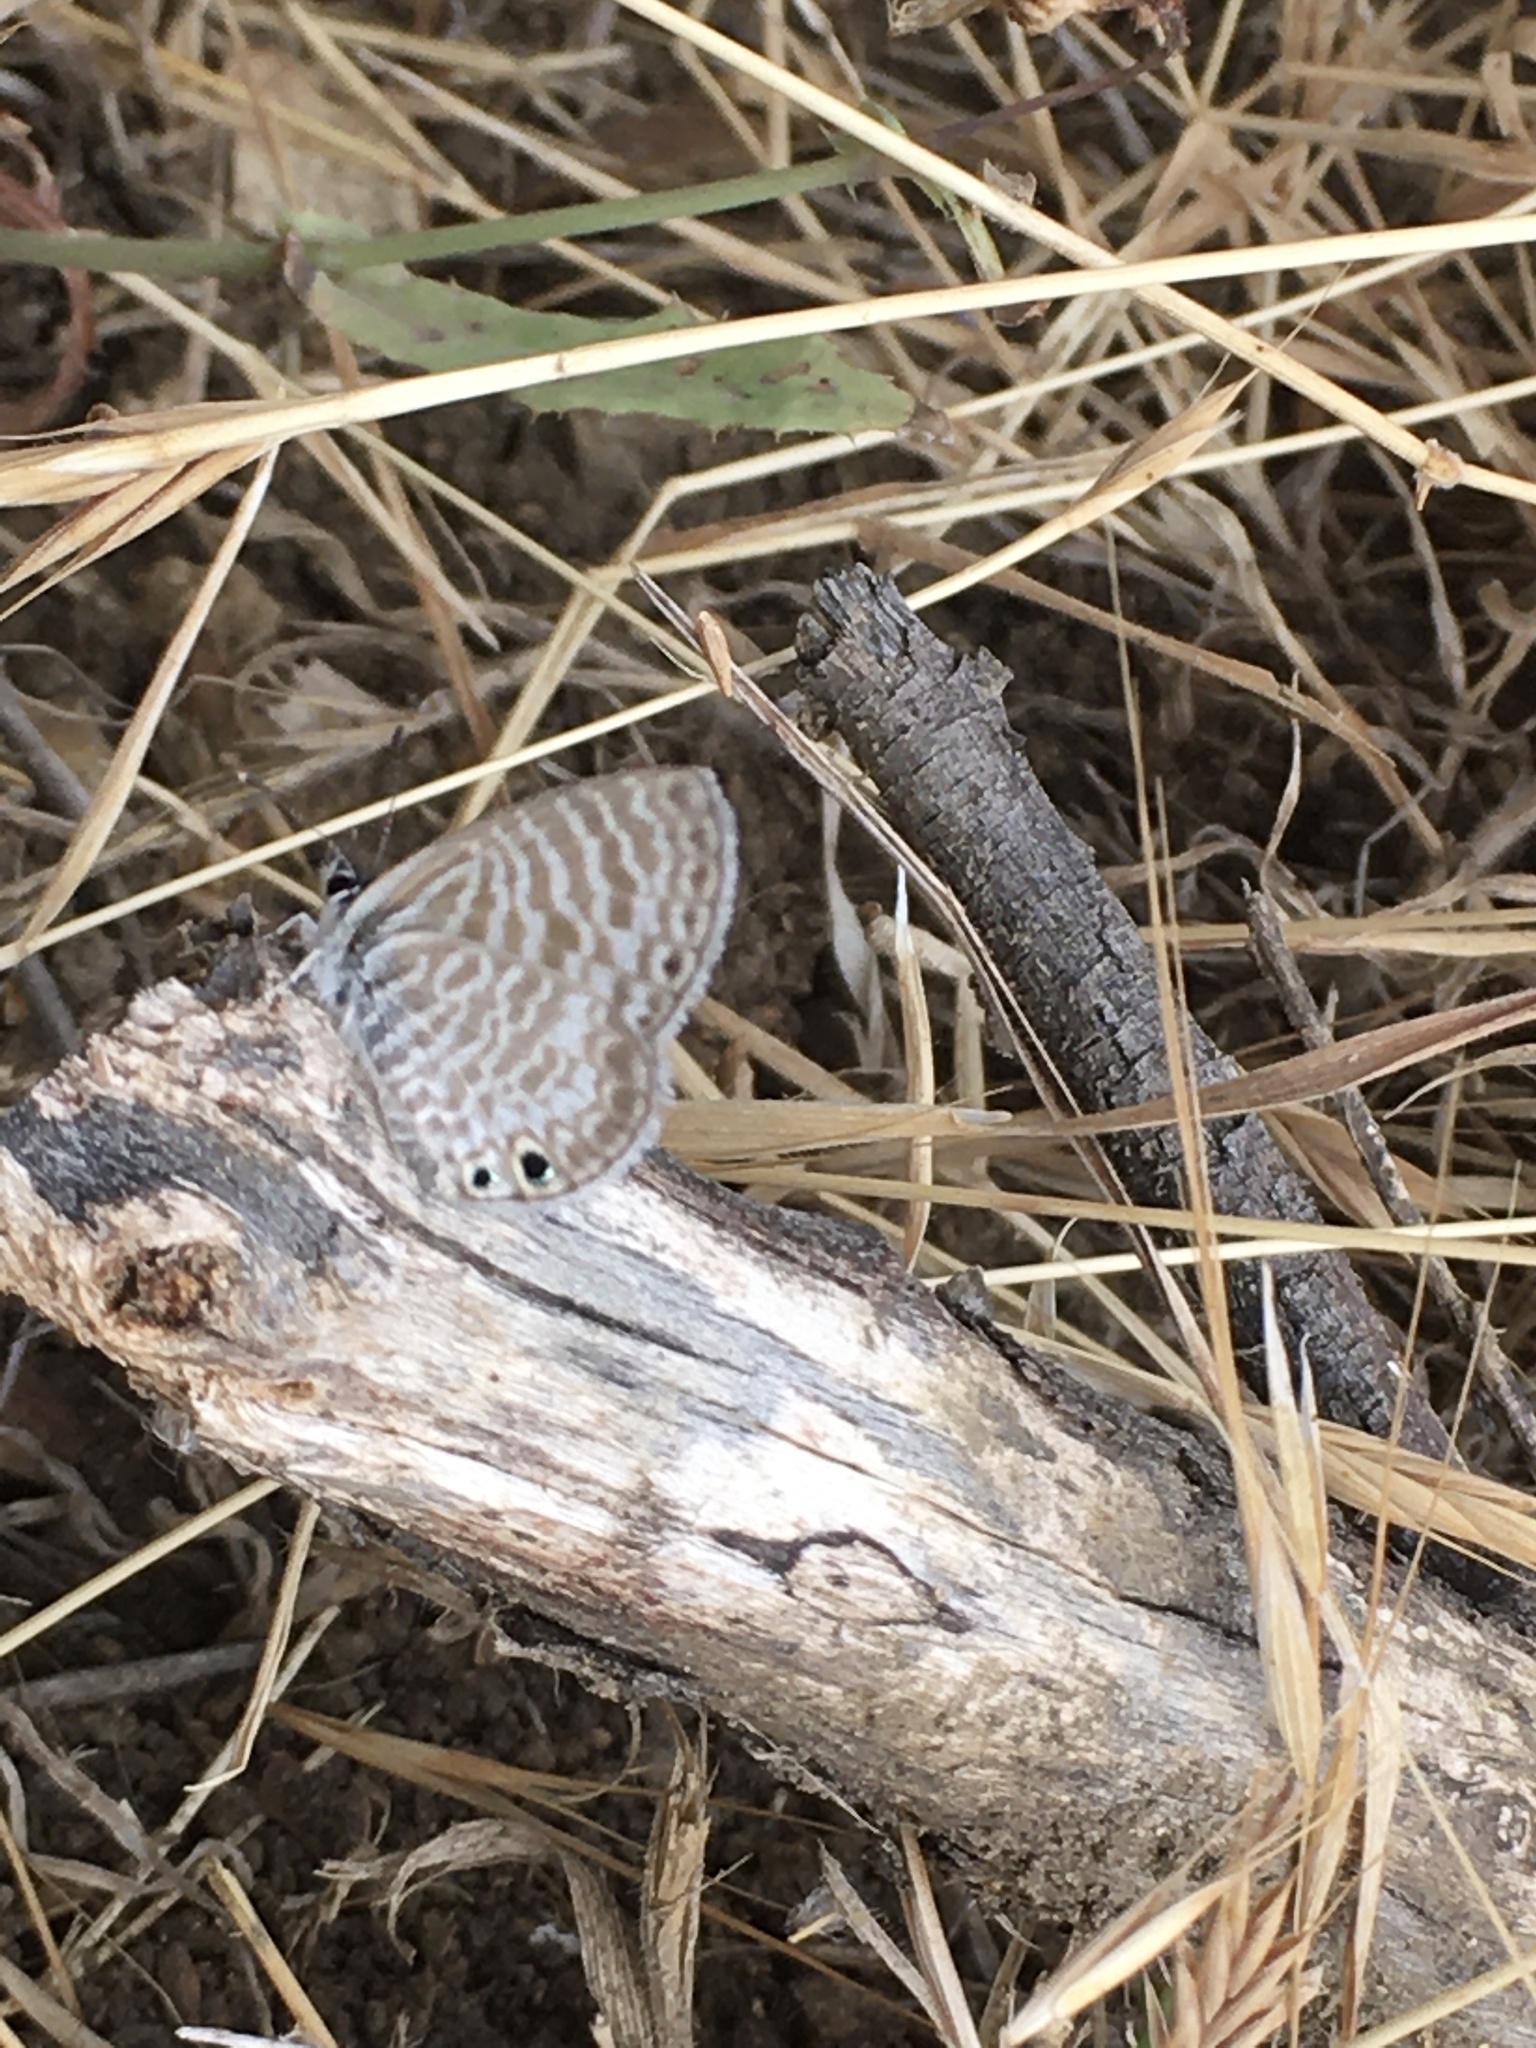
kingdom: Animalia
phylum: Arthropoda
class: Insecta
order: Lepidoptera
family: Lycaenidae
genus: Leptotes
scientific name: Leptotes marina
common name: Marine blue
